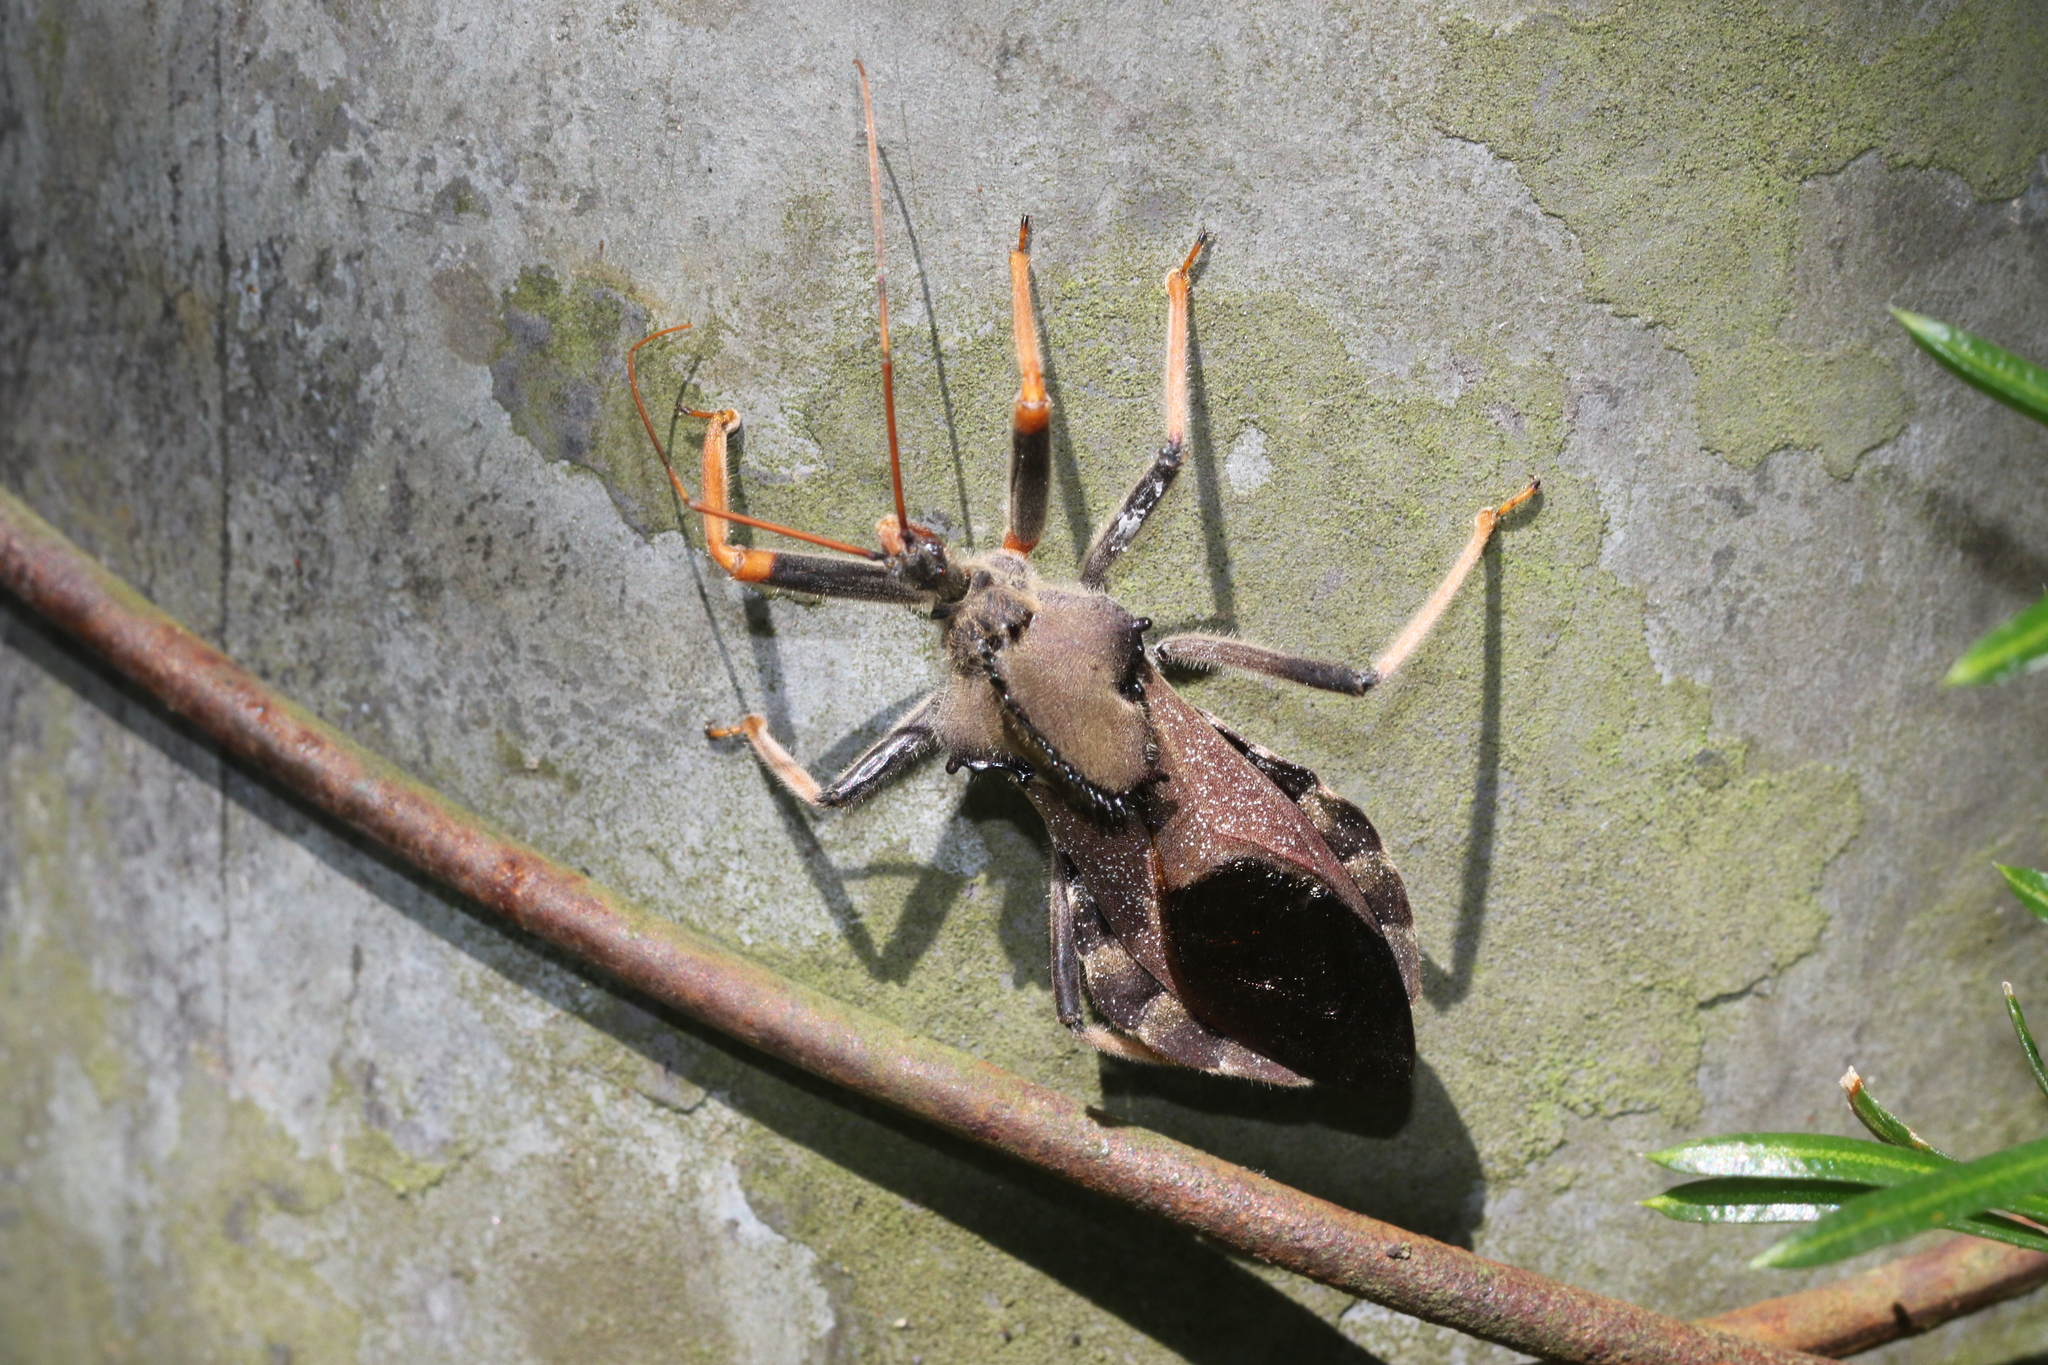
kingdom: Animalia
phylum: Arthropoda
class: Insecta
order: Hemiptera
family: Reduviidae
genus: Arilus
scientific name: Arilus carinatus
